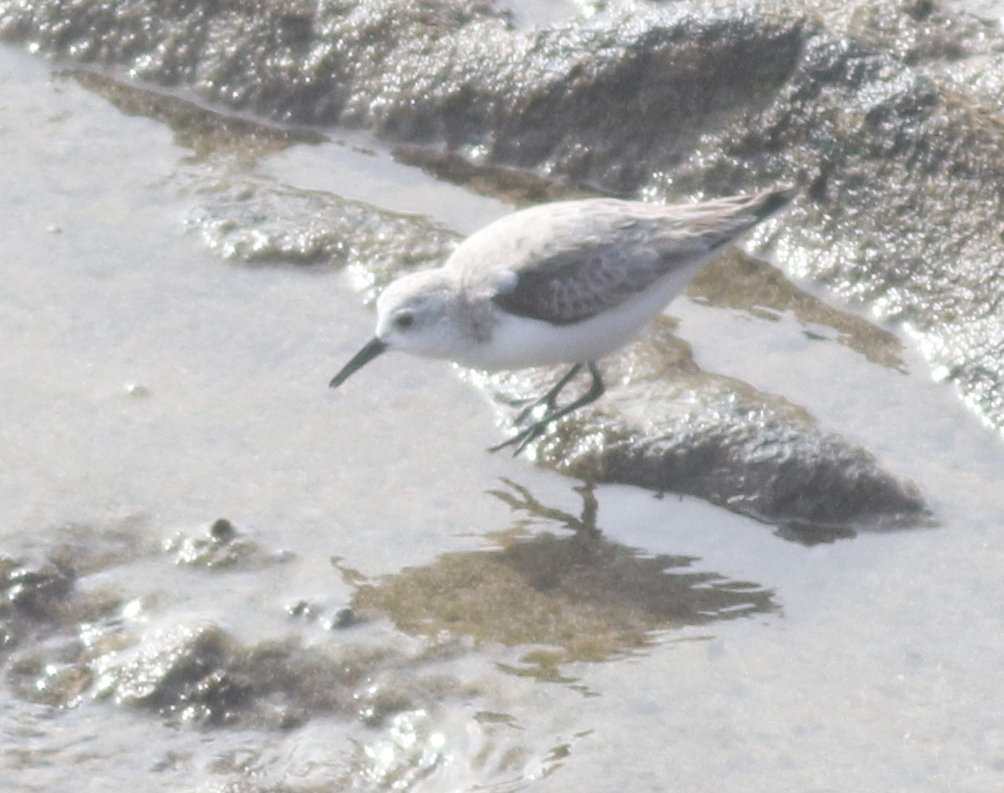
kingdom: Animalia
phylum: Chordata
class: Aves
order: Charadriiformes
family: Scolopacidae
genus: Calidris
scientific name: Calidris alba
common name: Sanderling
